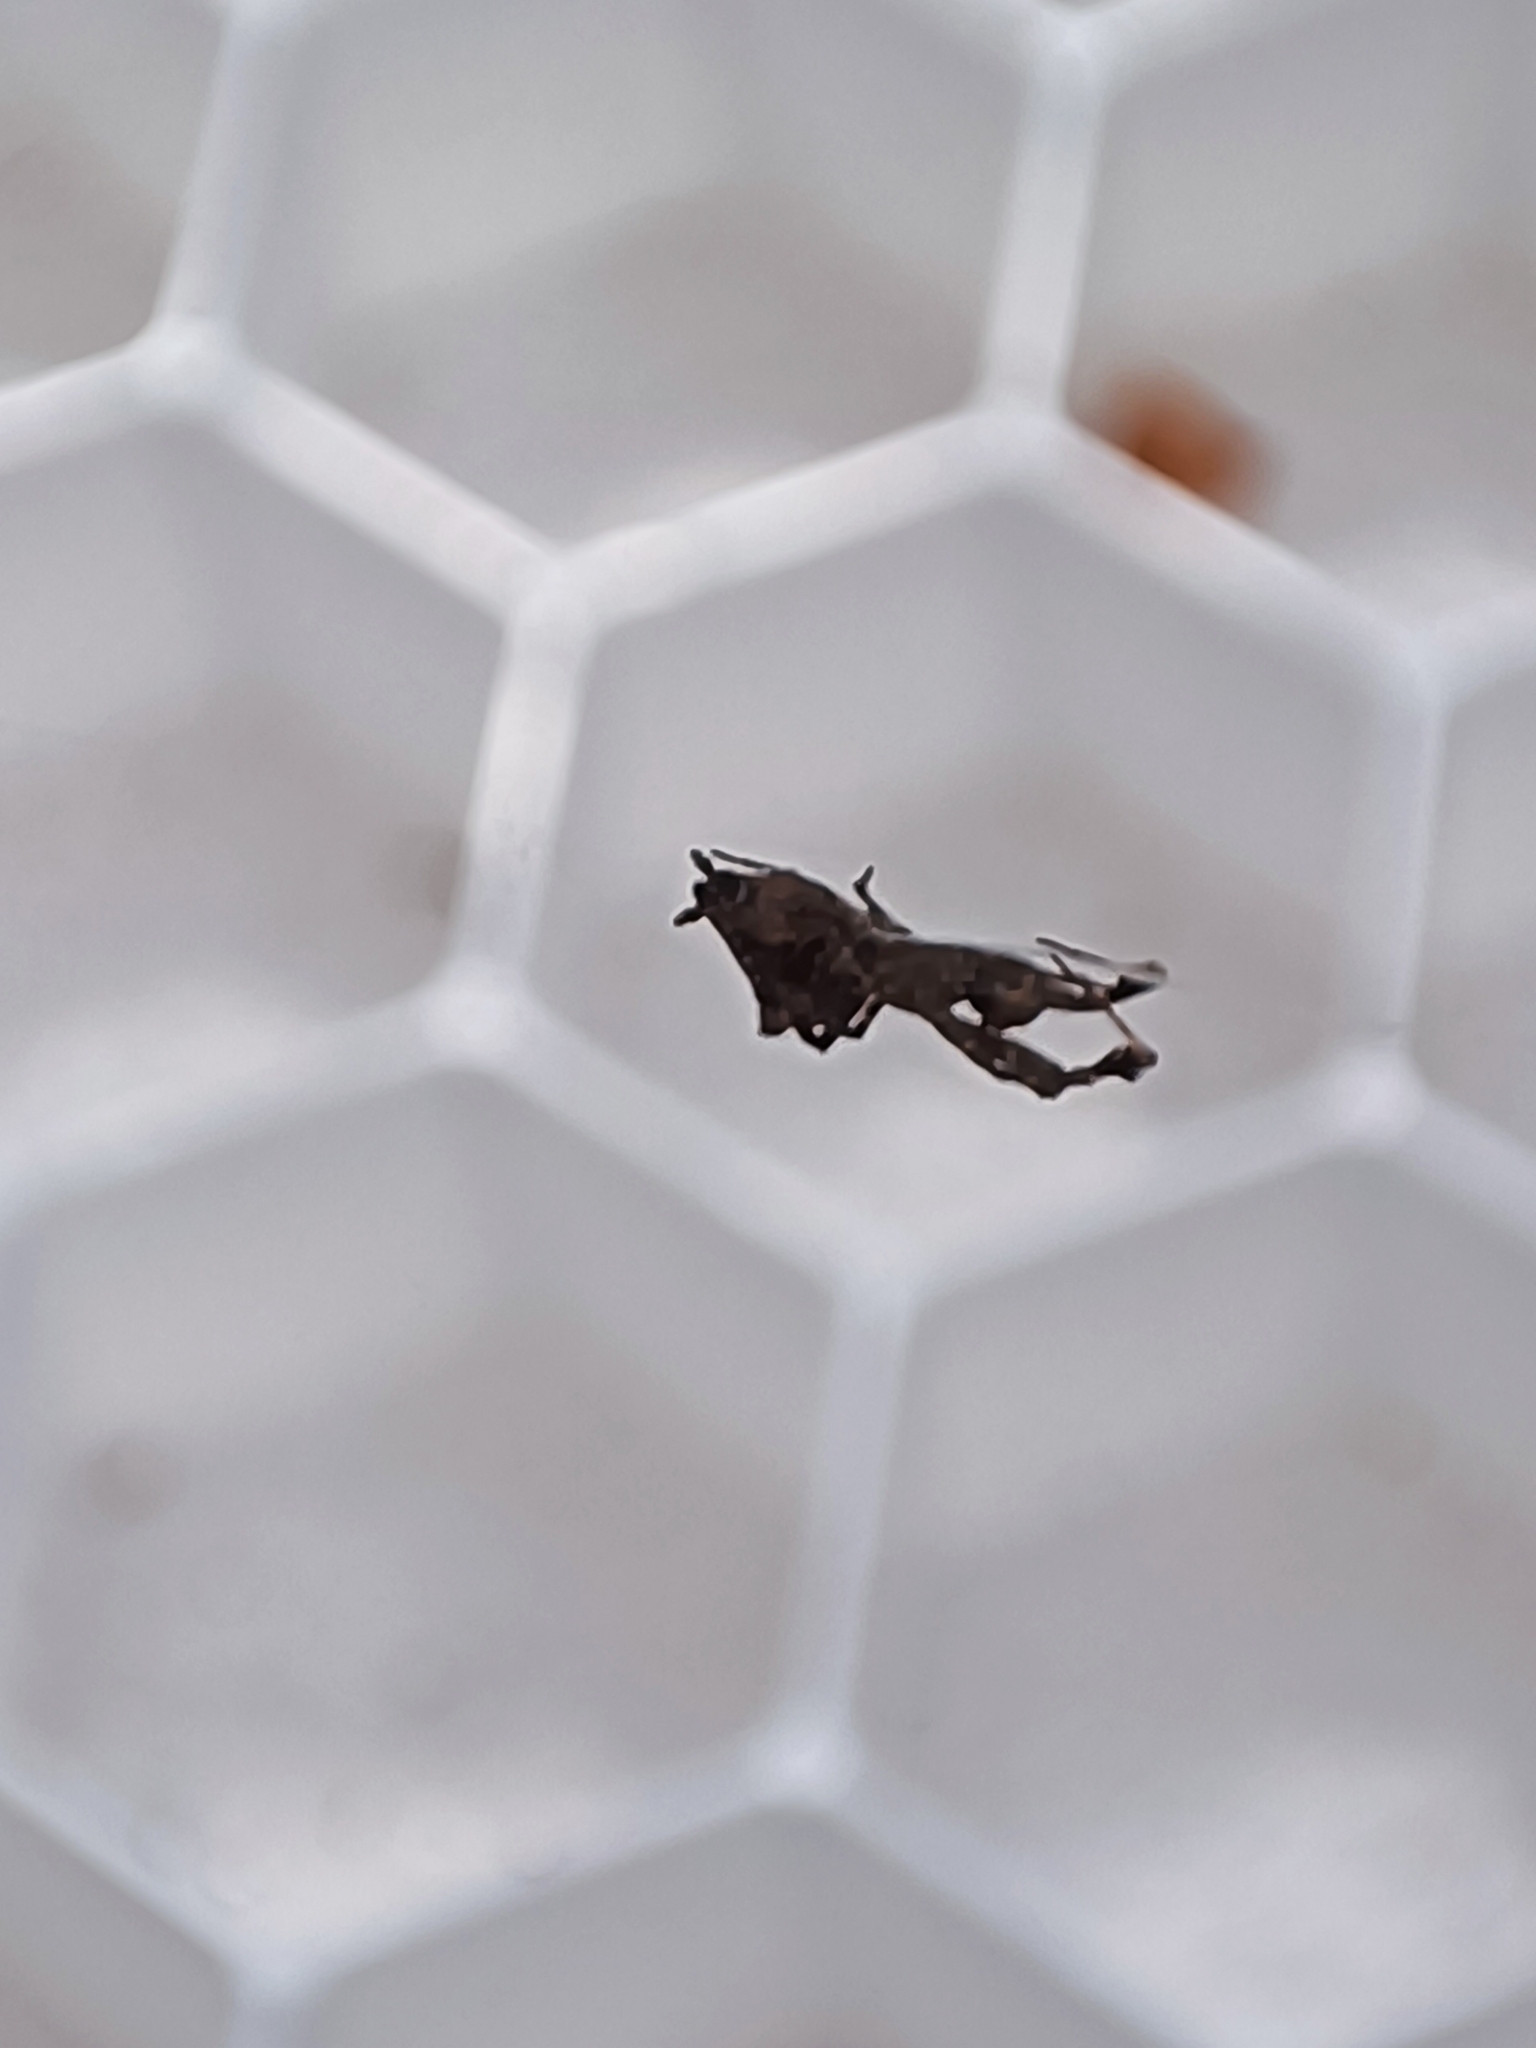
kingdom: Animalia
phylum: Arthropoda
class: Arachnida
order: Araneae
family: Uloboridae
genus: Uloborus
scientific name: Uloborus plumipes
